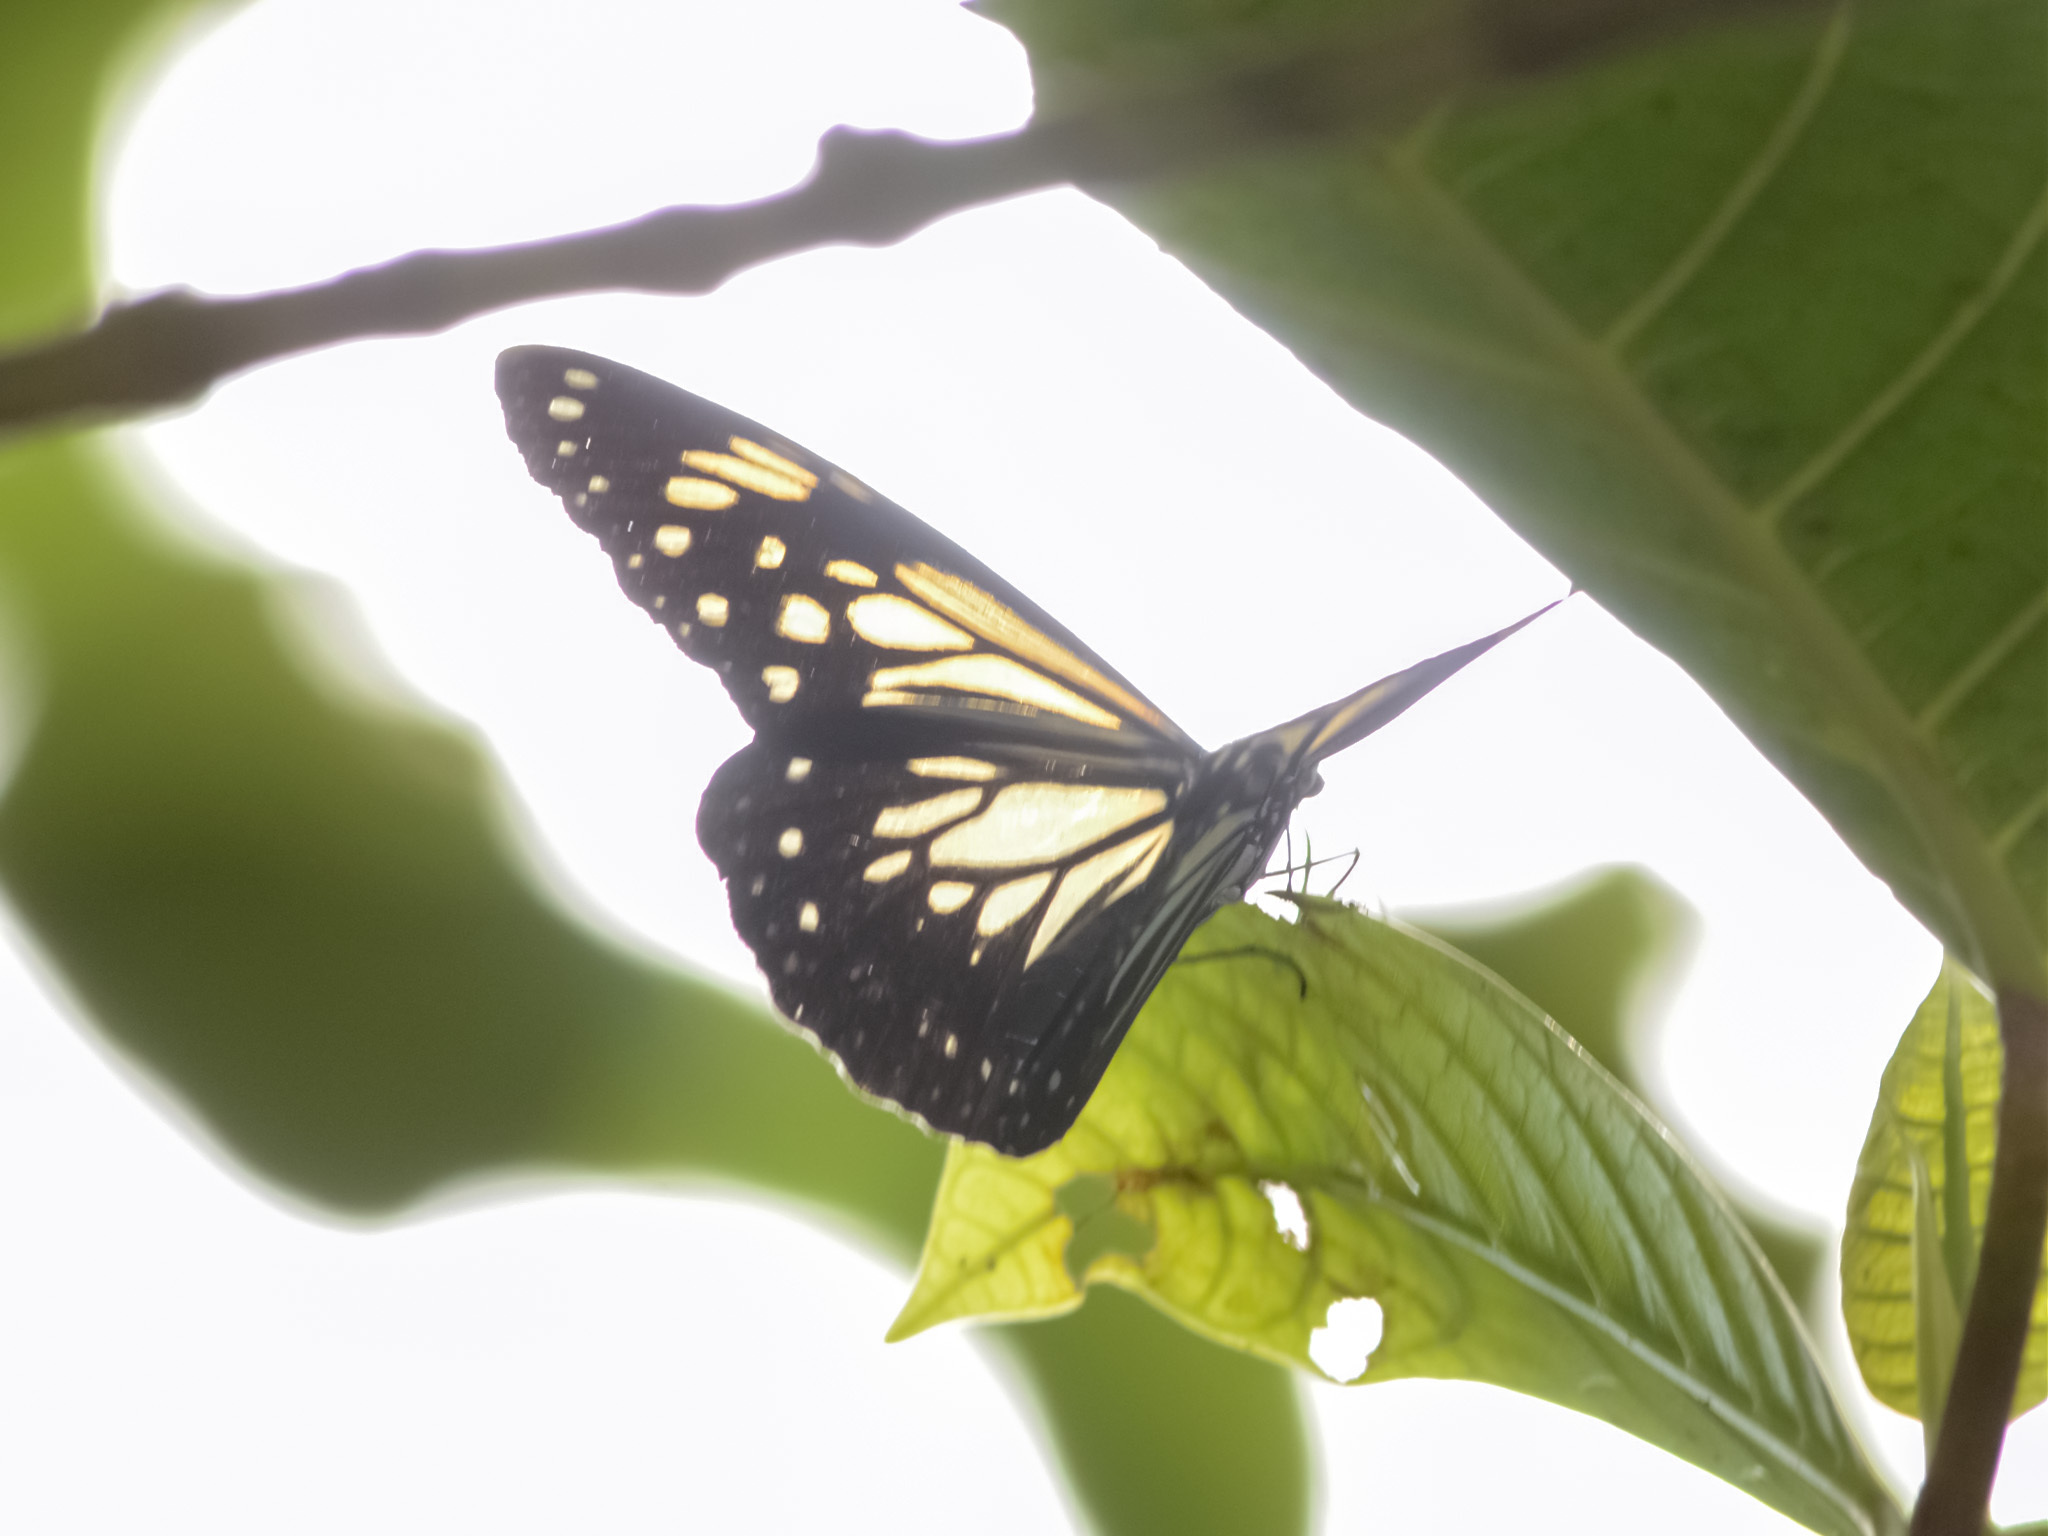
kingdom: Animalia
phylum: Arthropoda
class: Insecta
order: Lepidoptera
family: Nymphalidae
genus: Parantica
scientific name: Parantica luzonensis
